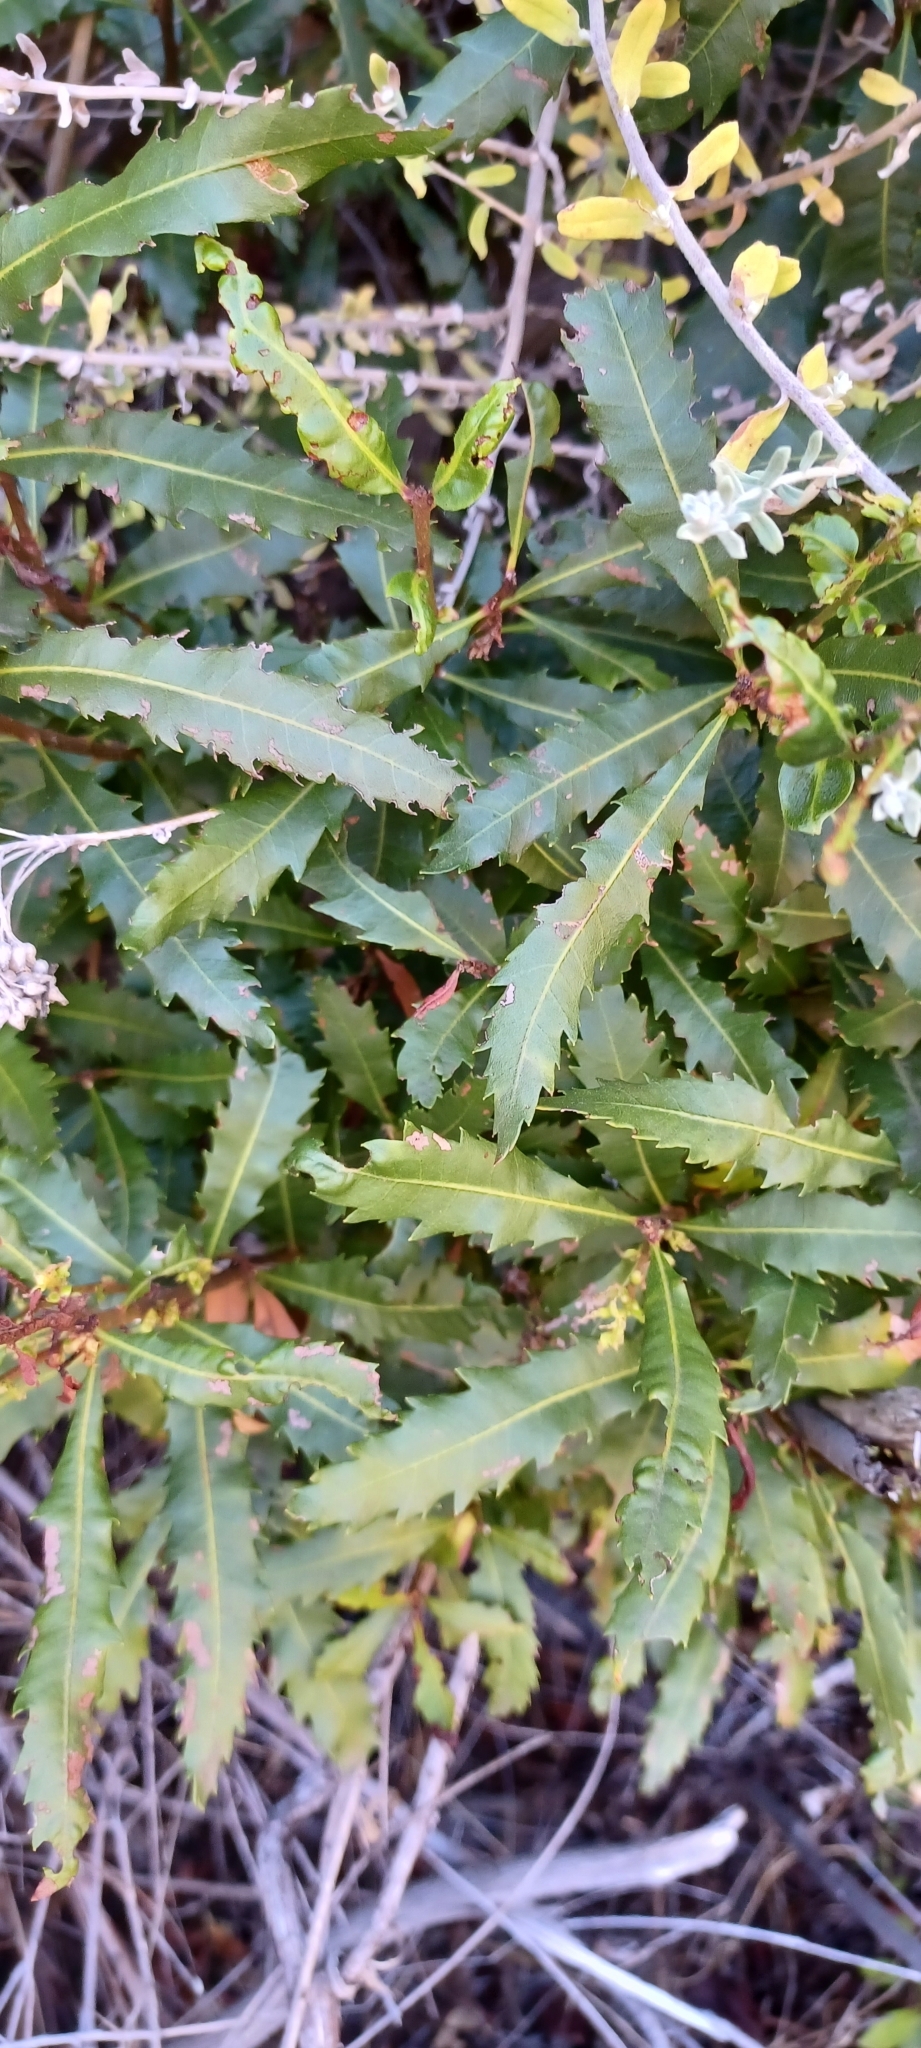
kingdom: Plantae
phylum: Tracheophyta
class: Magnoliopsida
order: Fagales
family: Myricaceae
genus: Morella
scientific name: Morella serrata
